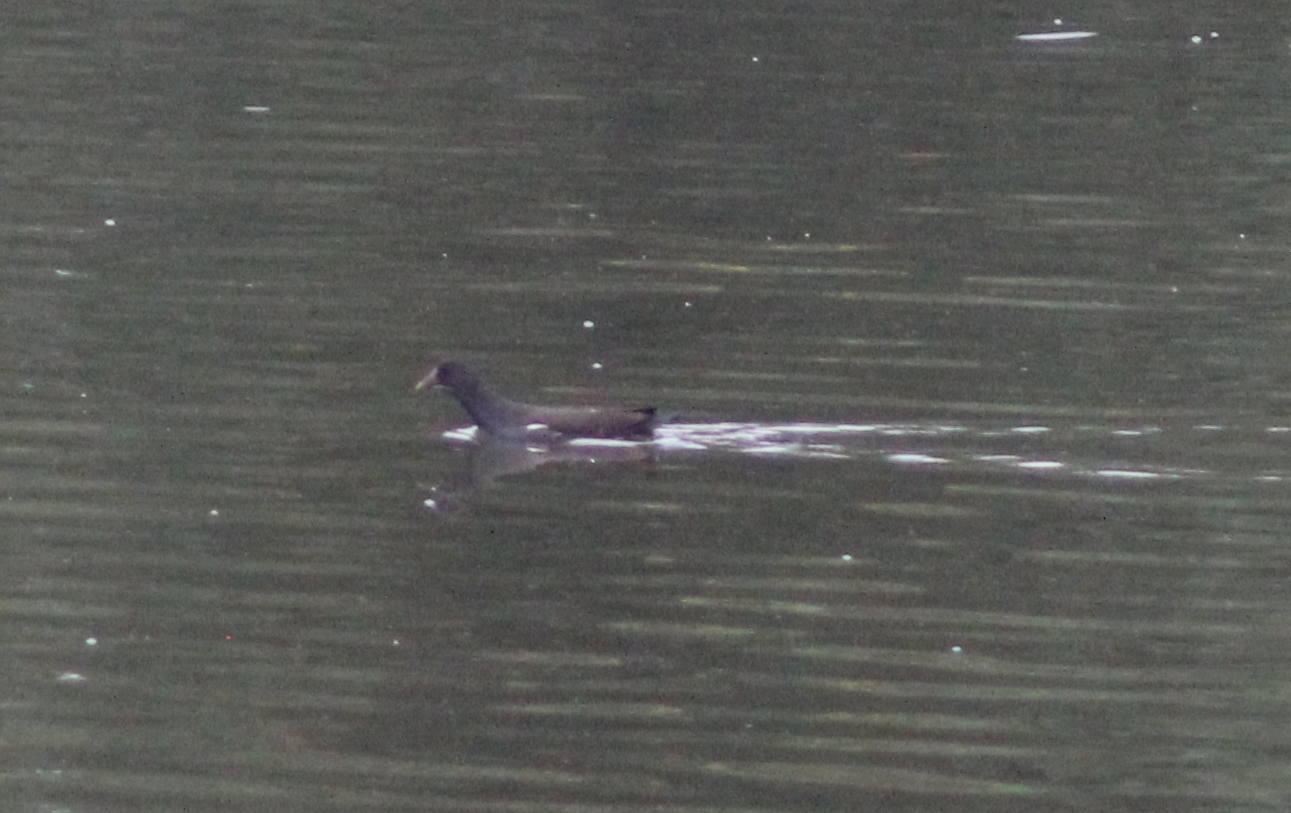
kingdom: Animalia
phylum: Chordata
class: Aves
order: Gruiformes
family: Rallidae
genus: Gallinula
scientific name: Gallinula chloropus
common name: Common moorhen
